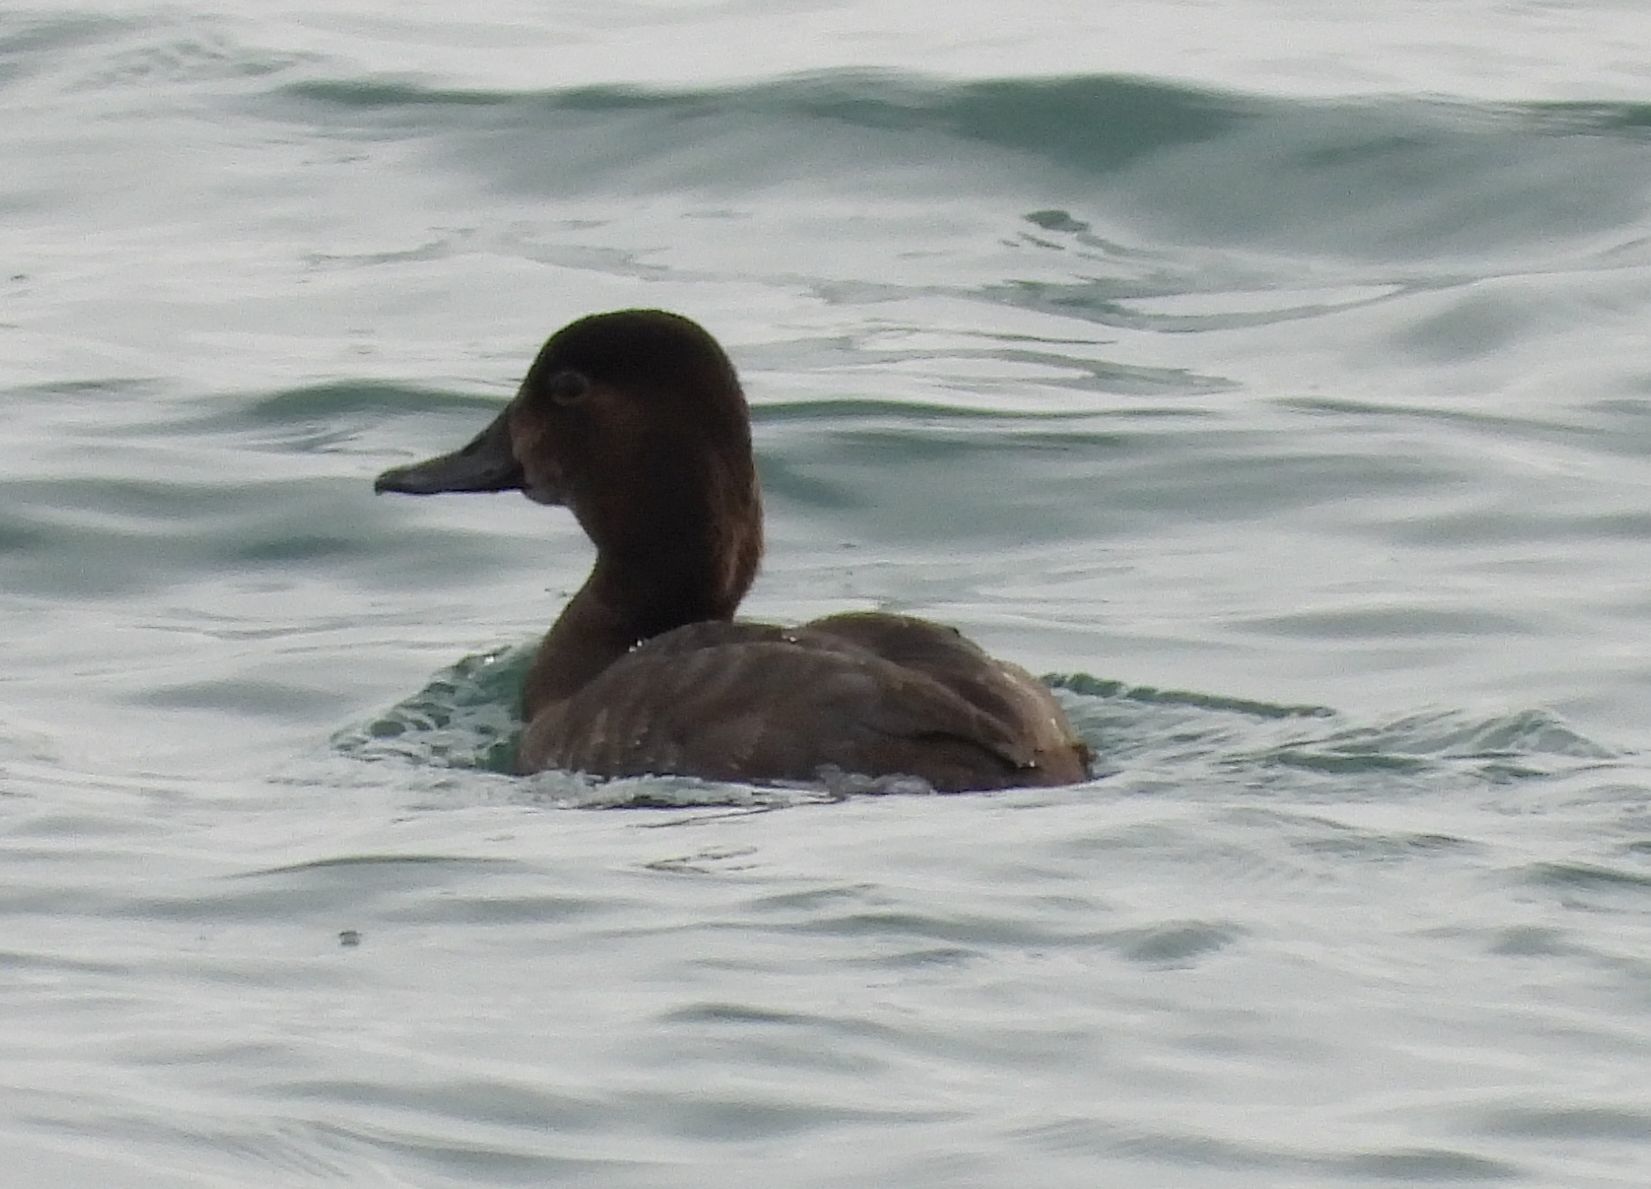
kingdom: Animalia
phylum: Chordata
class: Aves
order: Anseriformes
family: Anatidae
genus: Aythya
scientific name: Aythya americana
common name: Redhead
